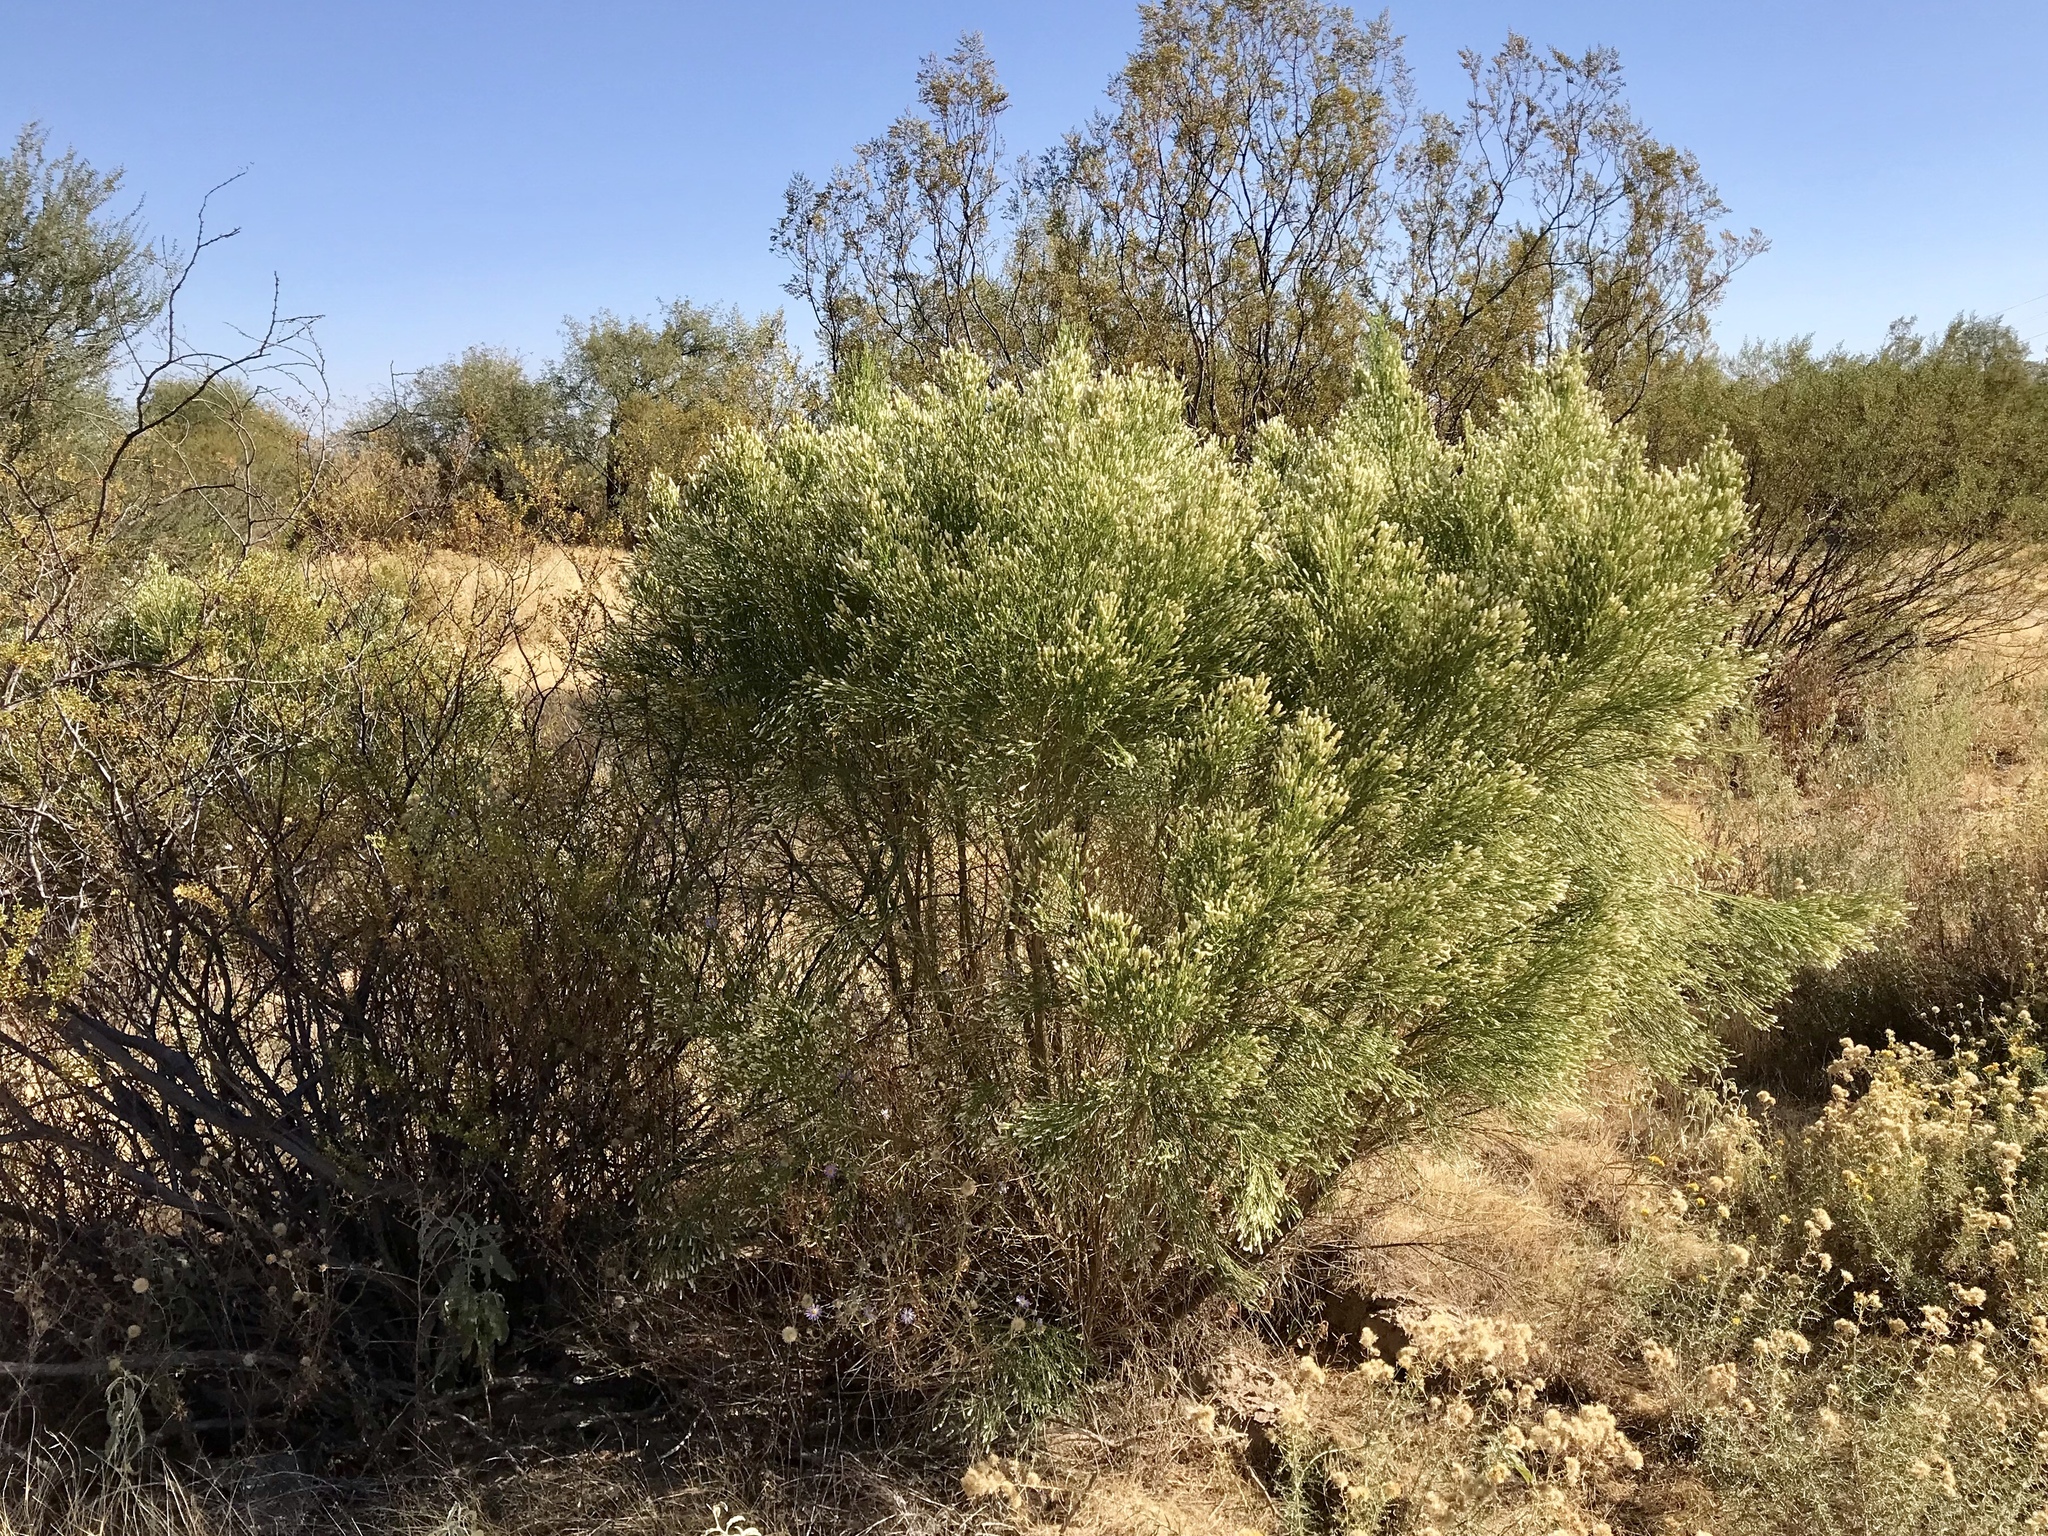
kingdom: Plantae
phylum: Tracheophyta
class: Magnoliopsida
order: Zygophyllales
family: Zygophyllaceae
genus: Larrea
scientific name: Larrea tridentata
